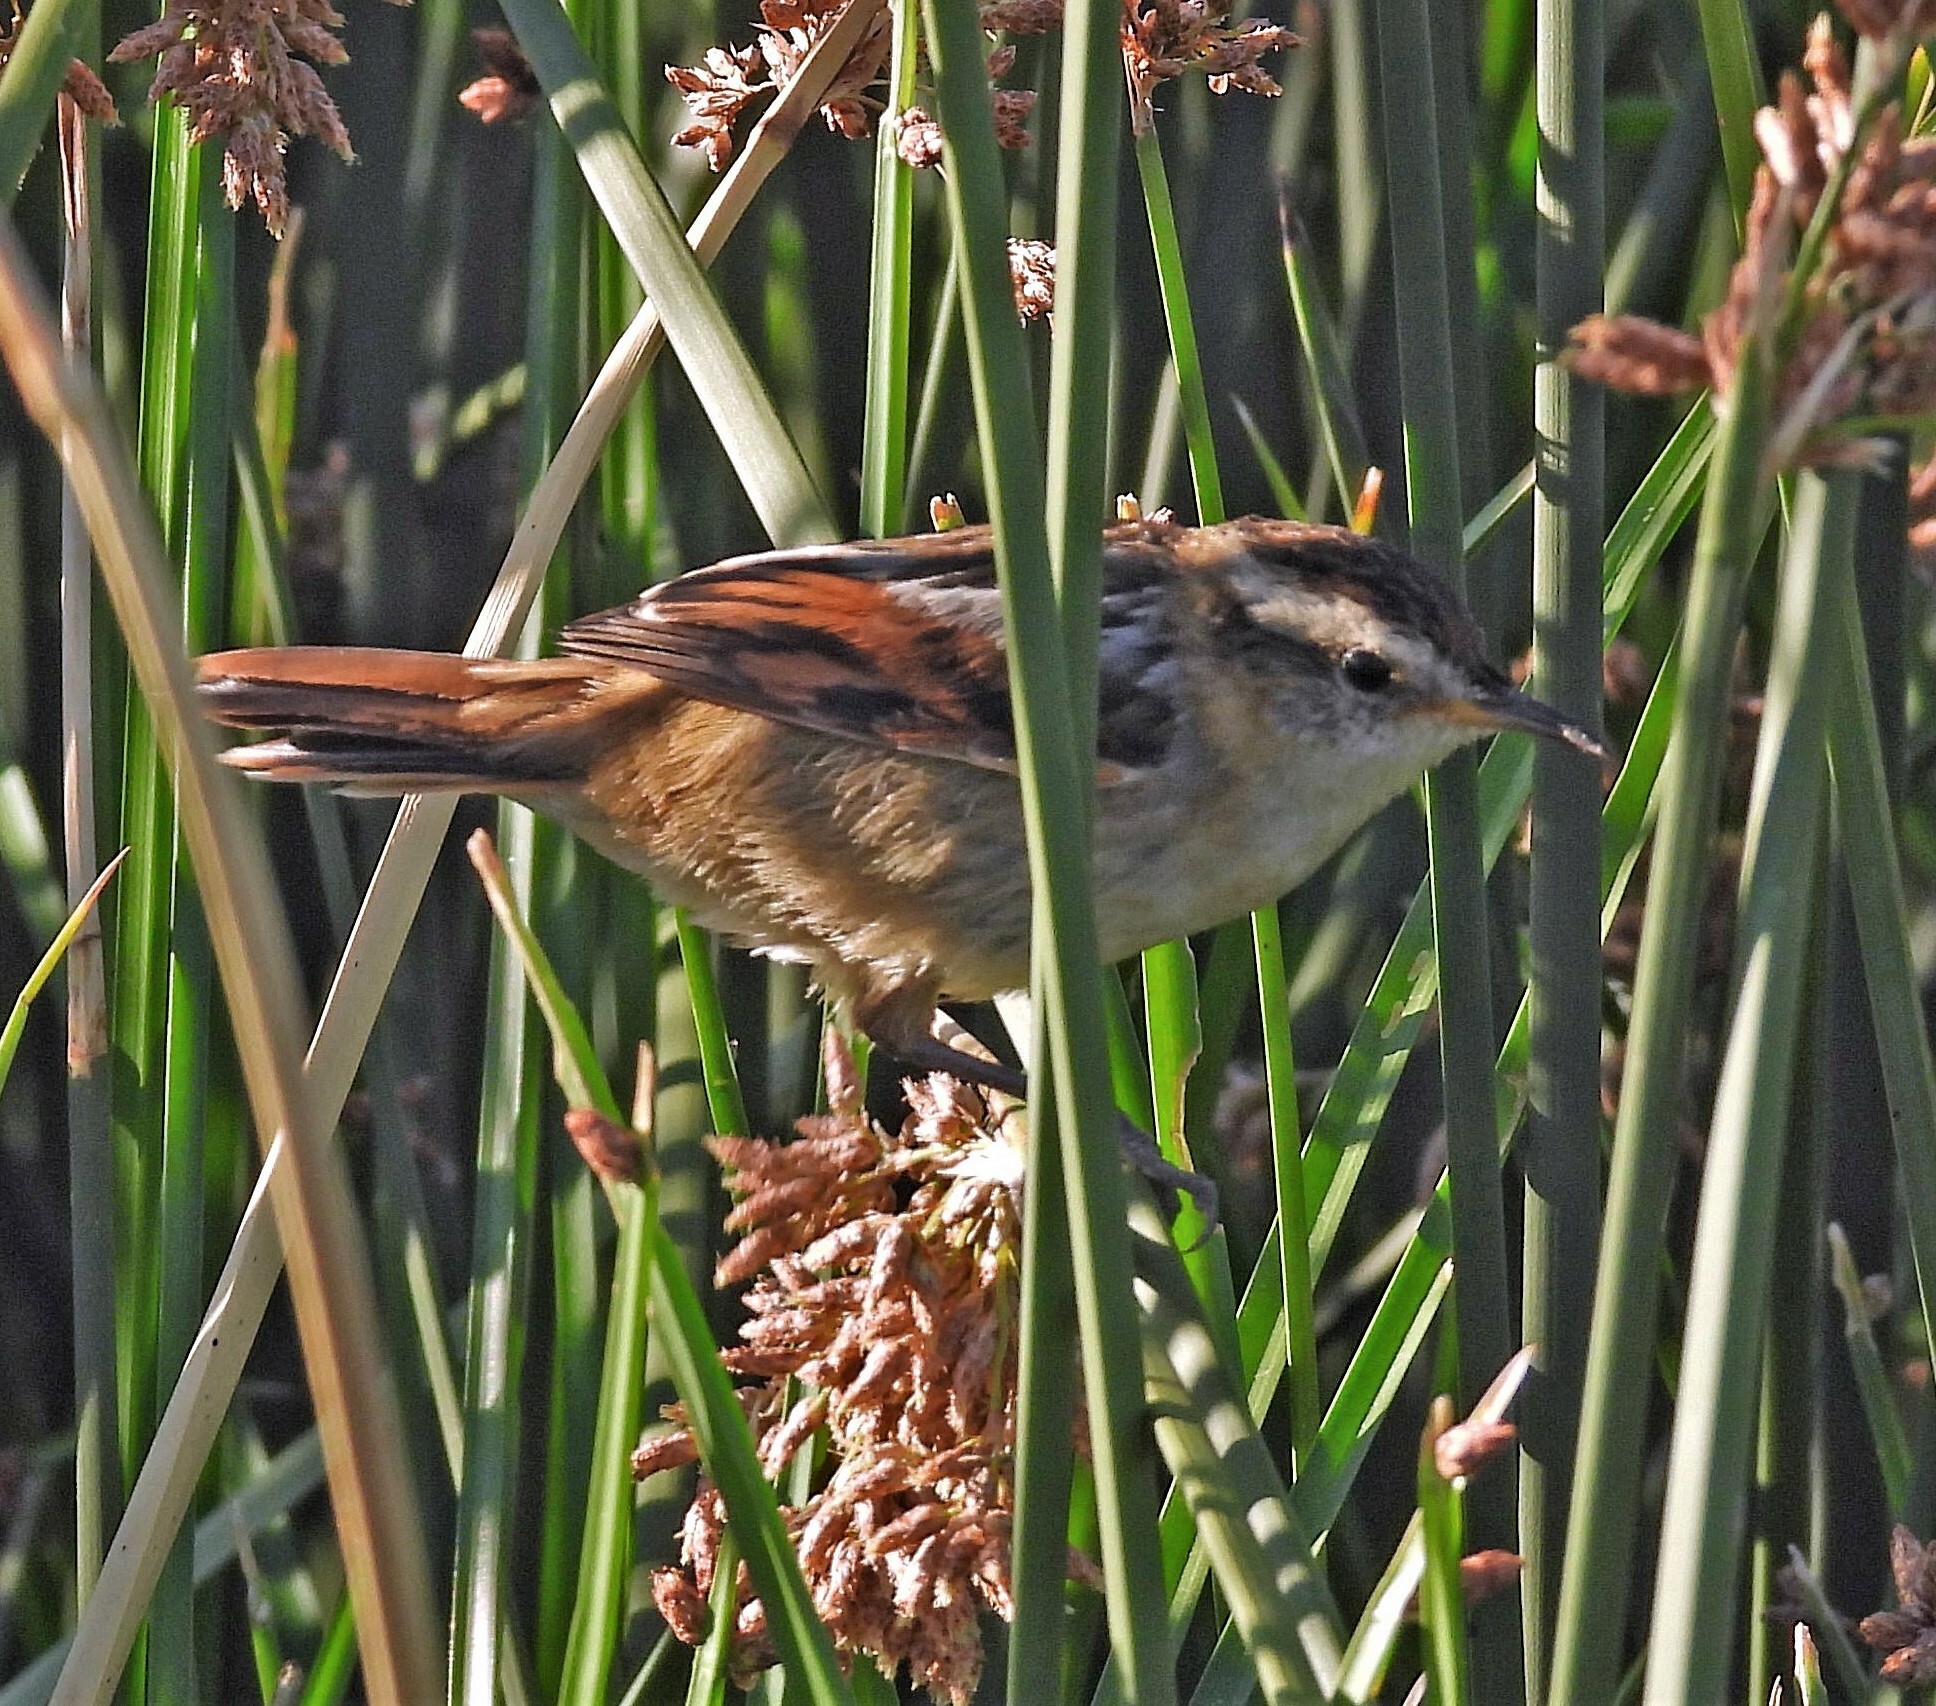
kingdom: Animalia
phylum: Chordata
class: Aves
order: Passeriformes
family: Furnariidae
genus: Phleocryptes
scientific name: Phleocryptes melanops
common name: Wren-like rushbird
